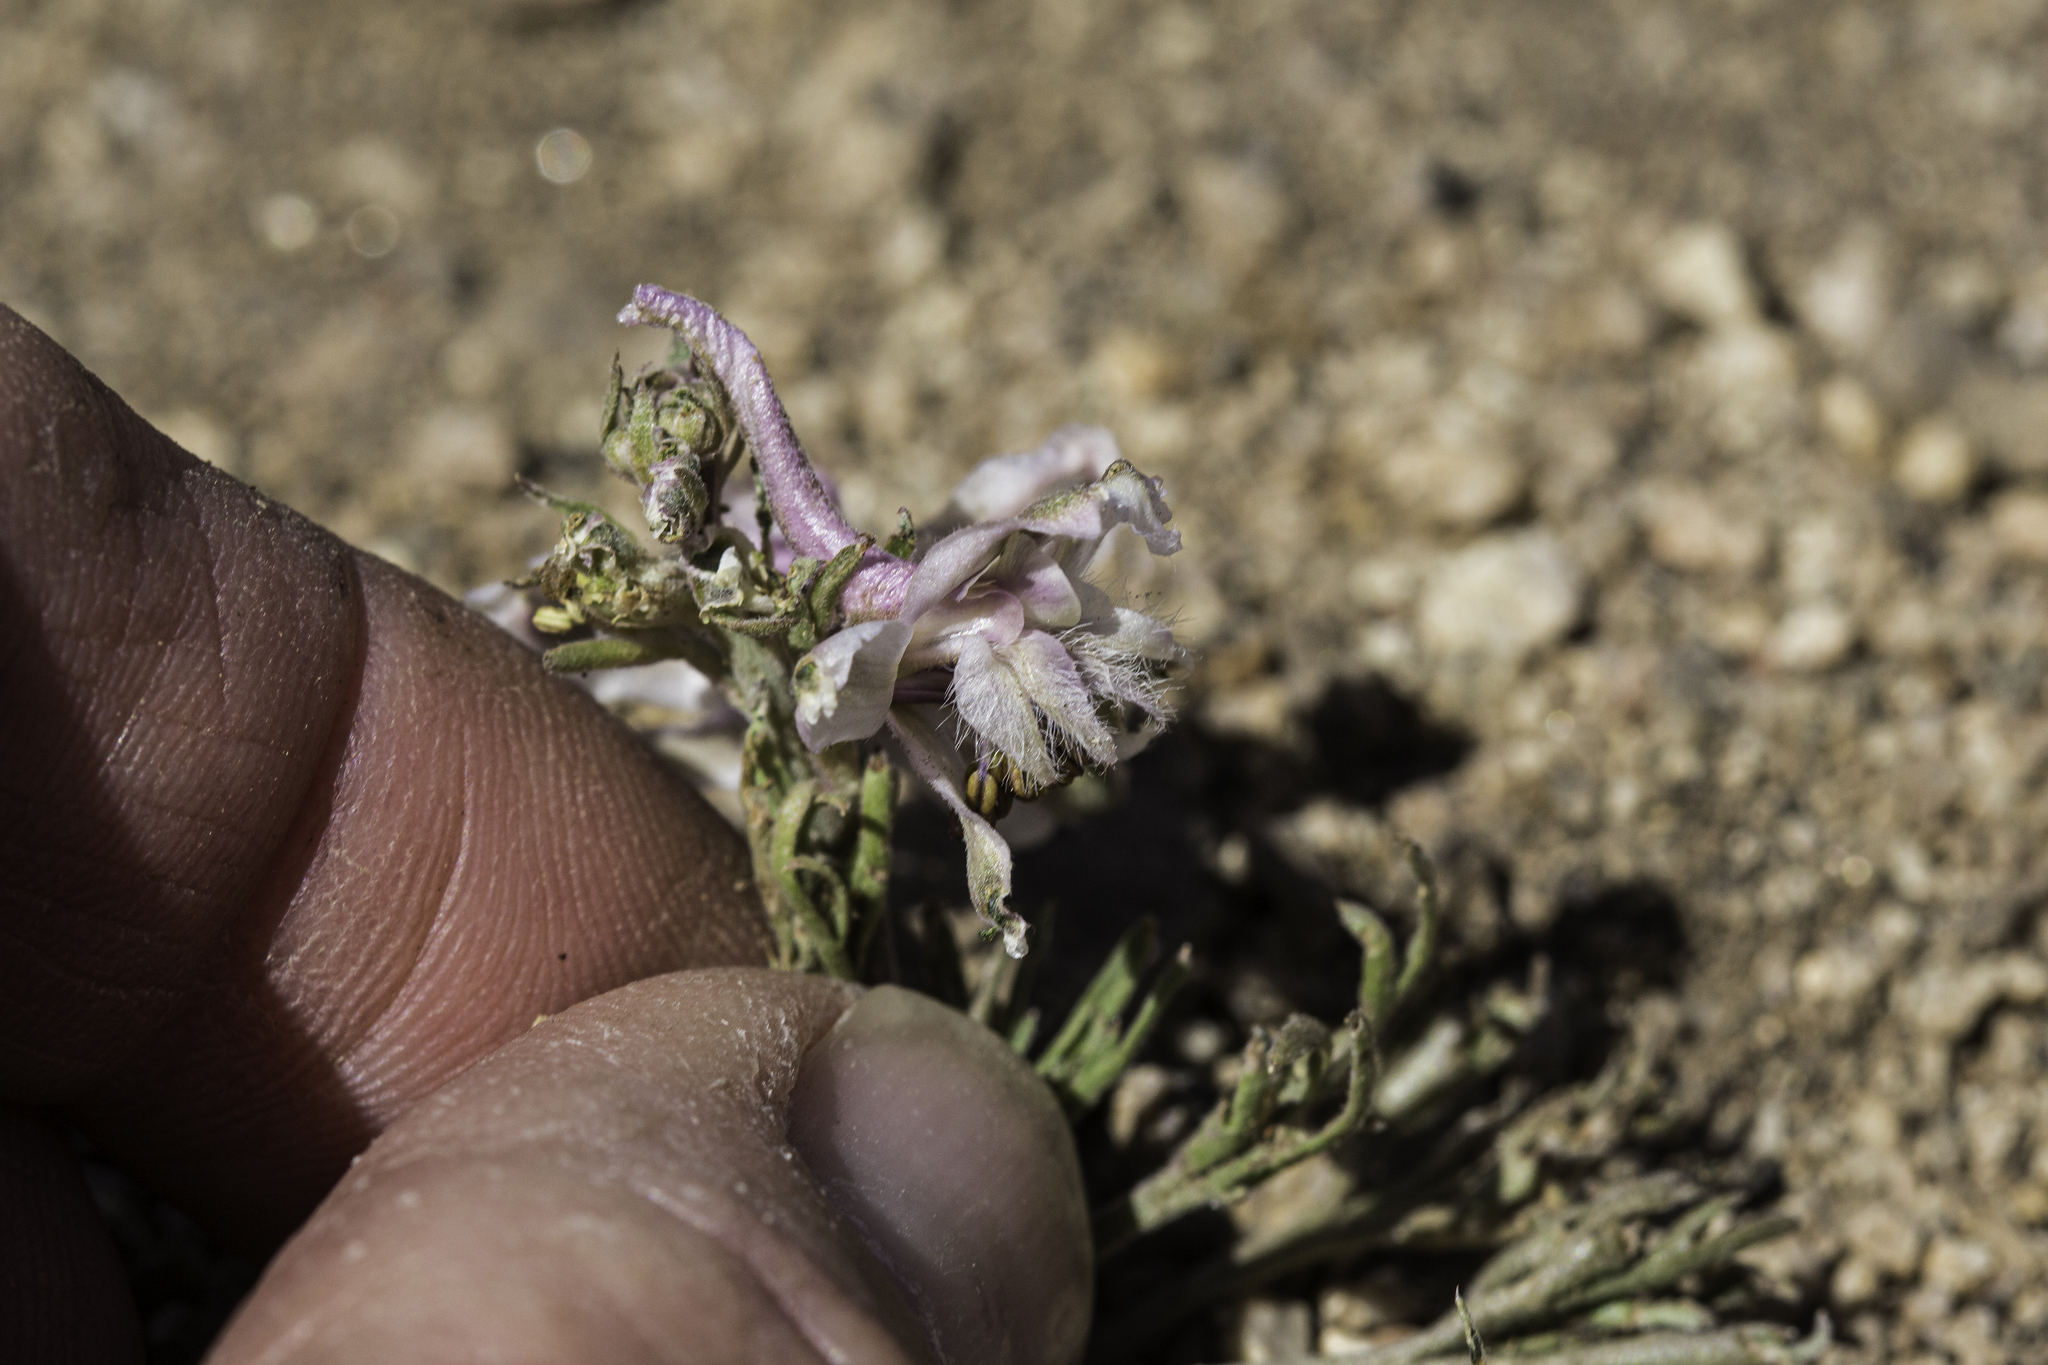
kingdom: Plantae
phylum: Tracheophyta
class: Magnoliopsida
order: Ranunculales
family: Ranunculaceae
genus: Delphinium
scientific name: Delphinium wootonii
